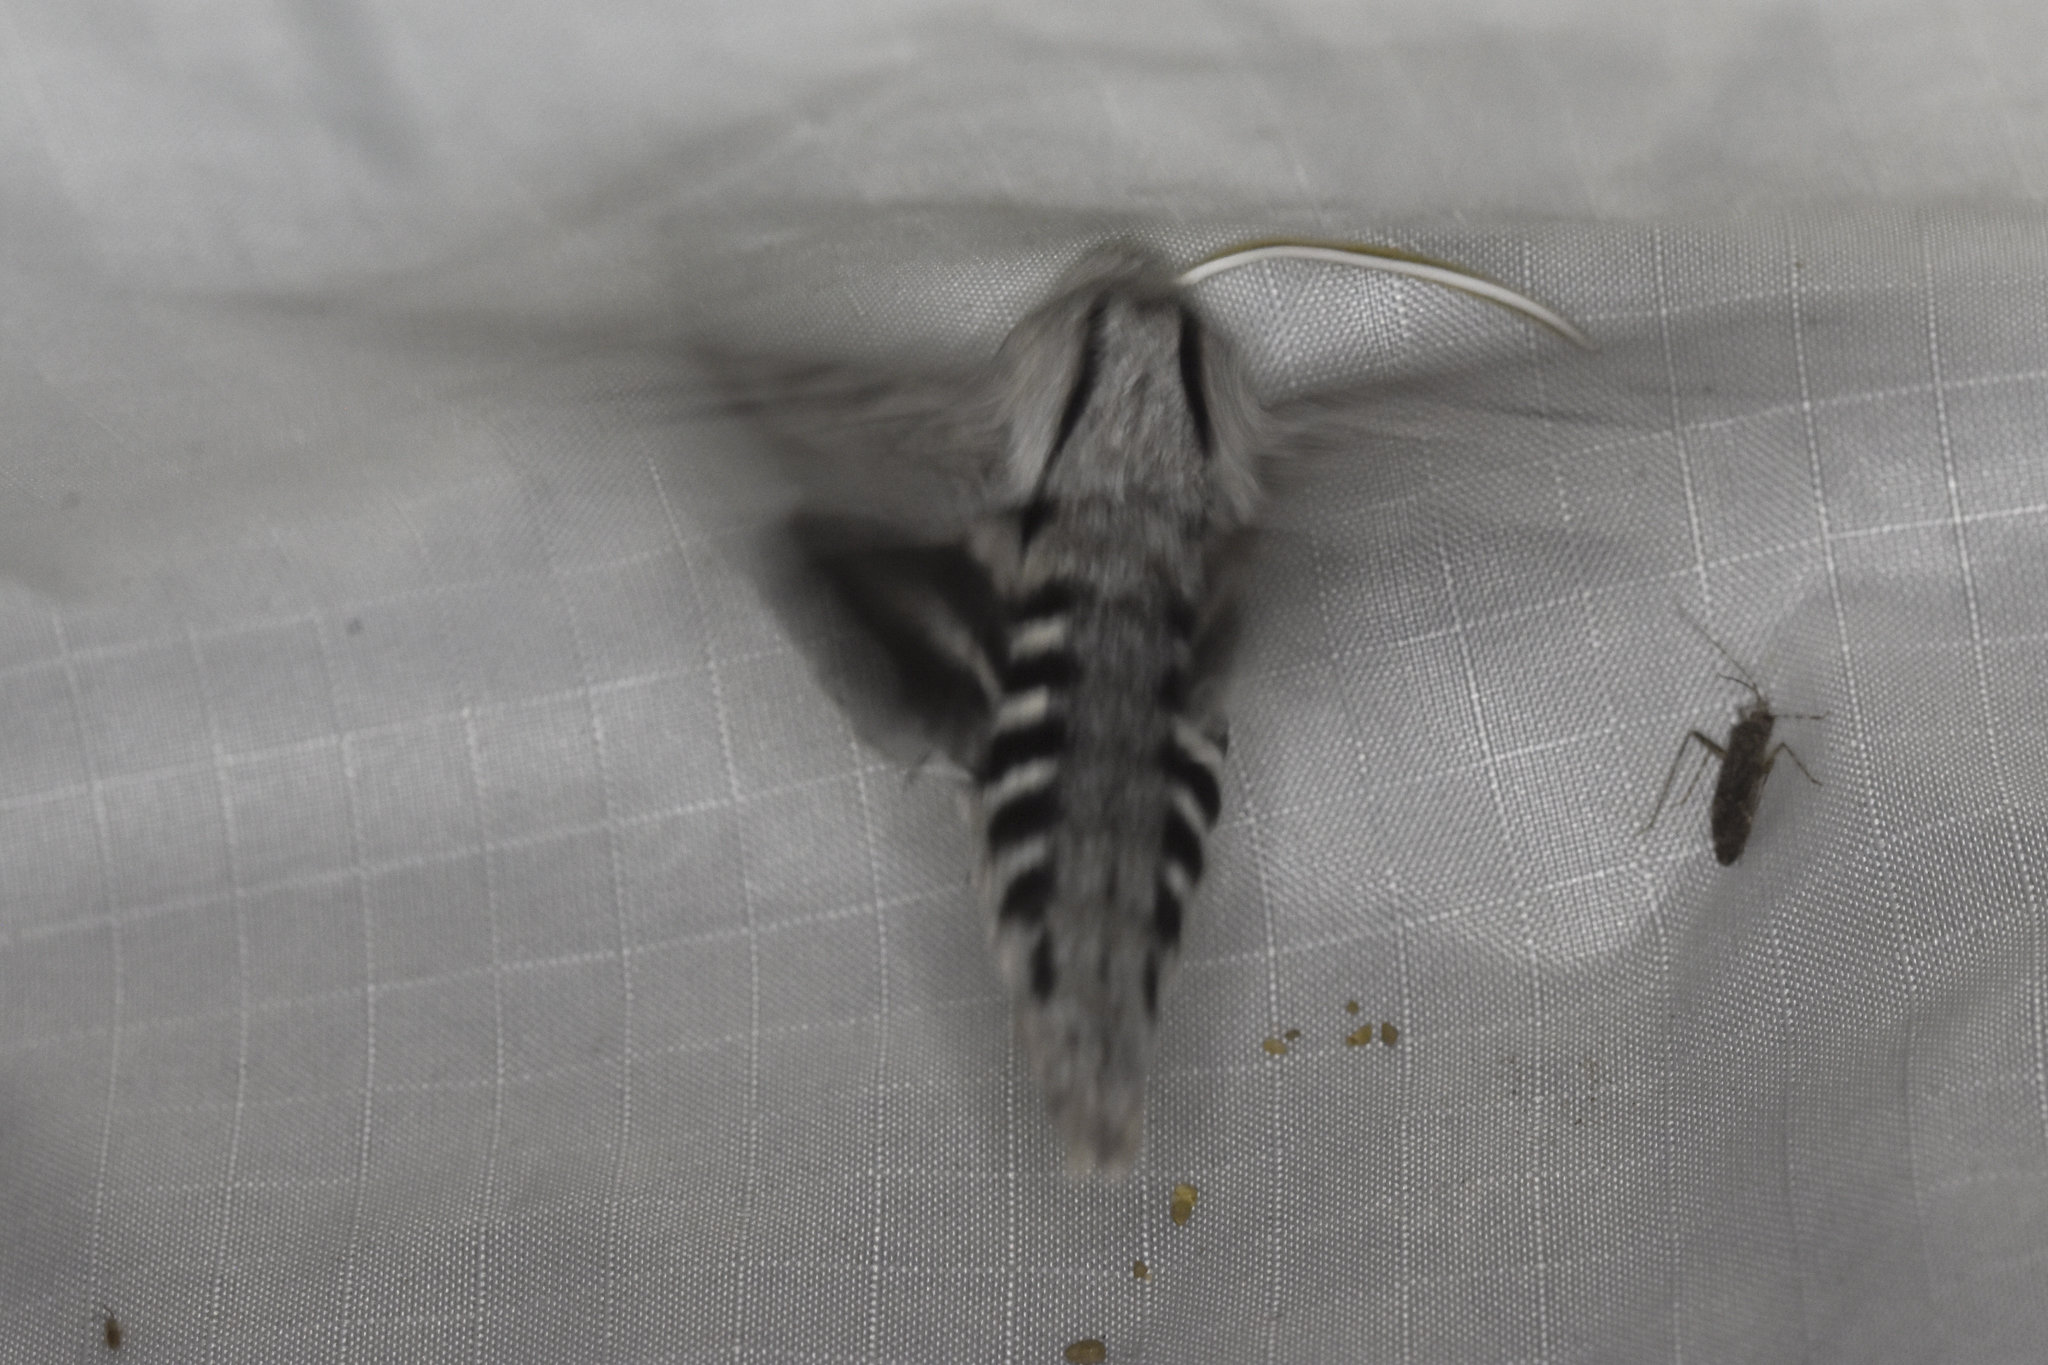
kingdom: Animalia
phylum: Arthropoda
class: Insecta
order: Lepidoptera
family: Sphingidae
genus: Sphinx
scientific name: Sphinx chersis
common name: Great ash sphinx
